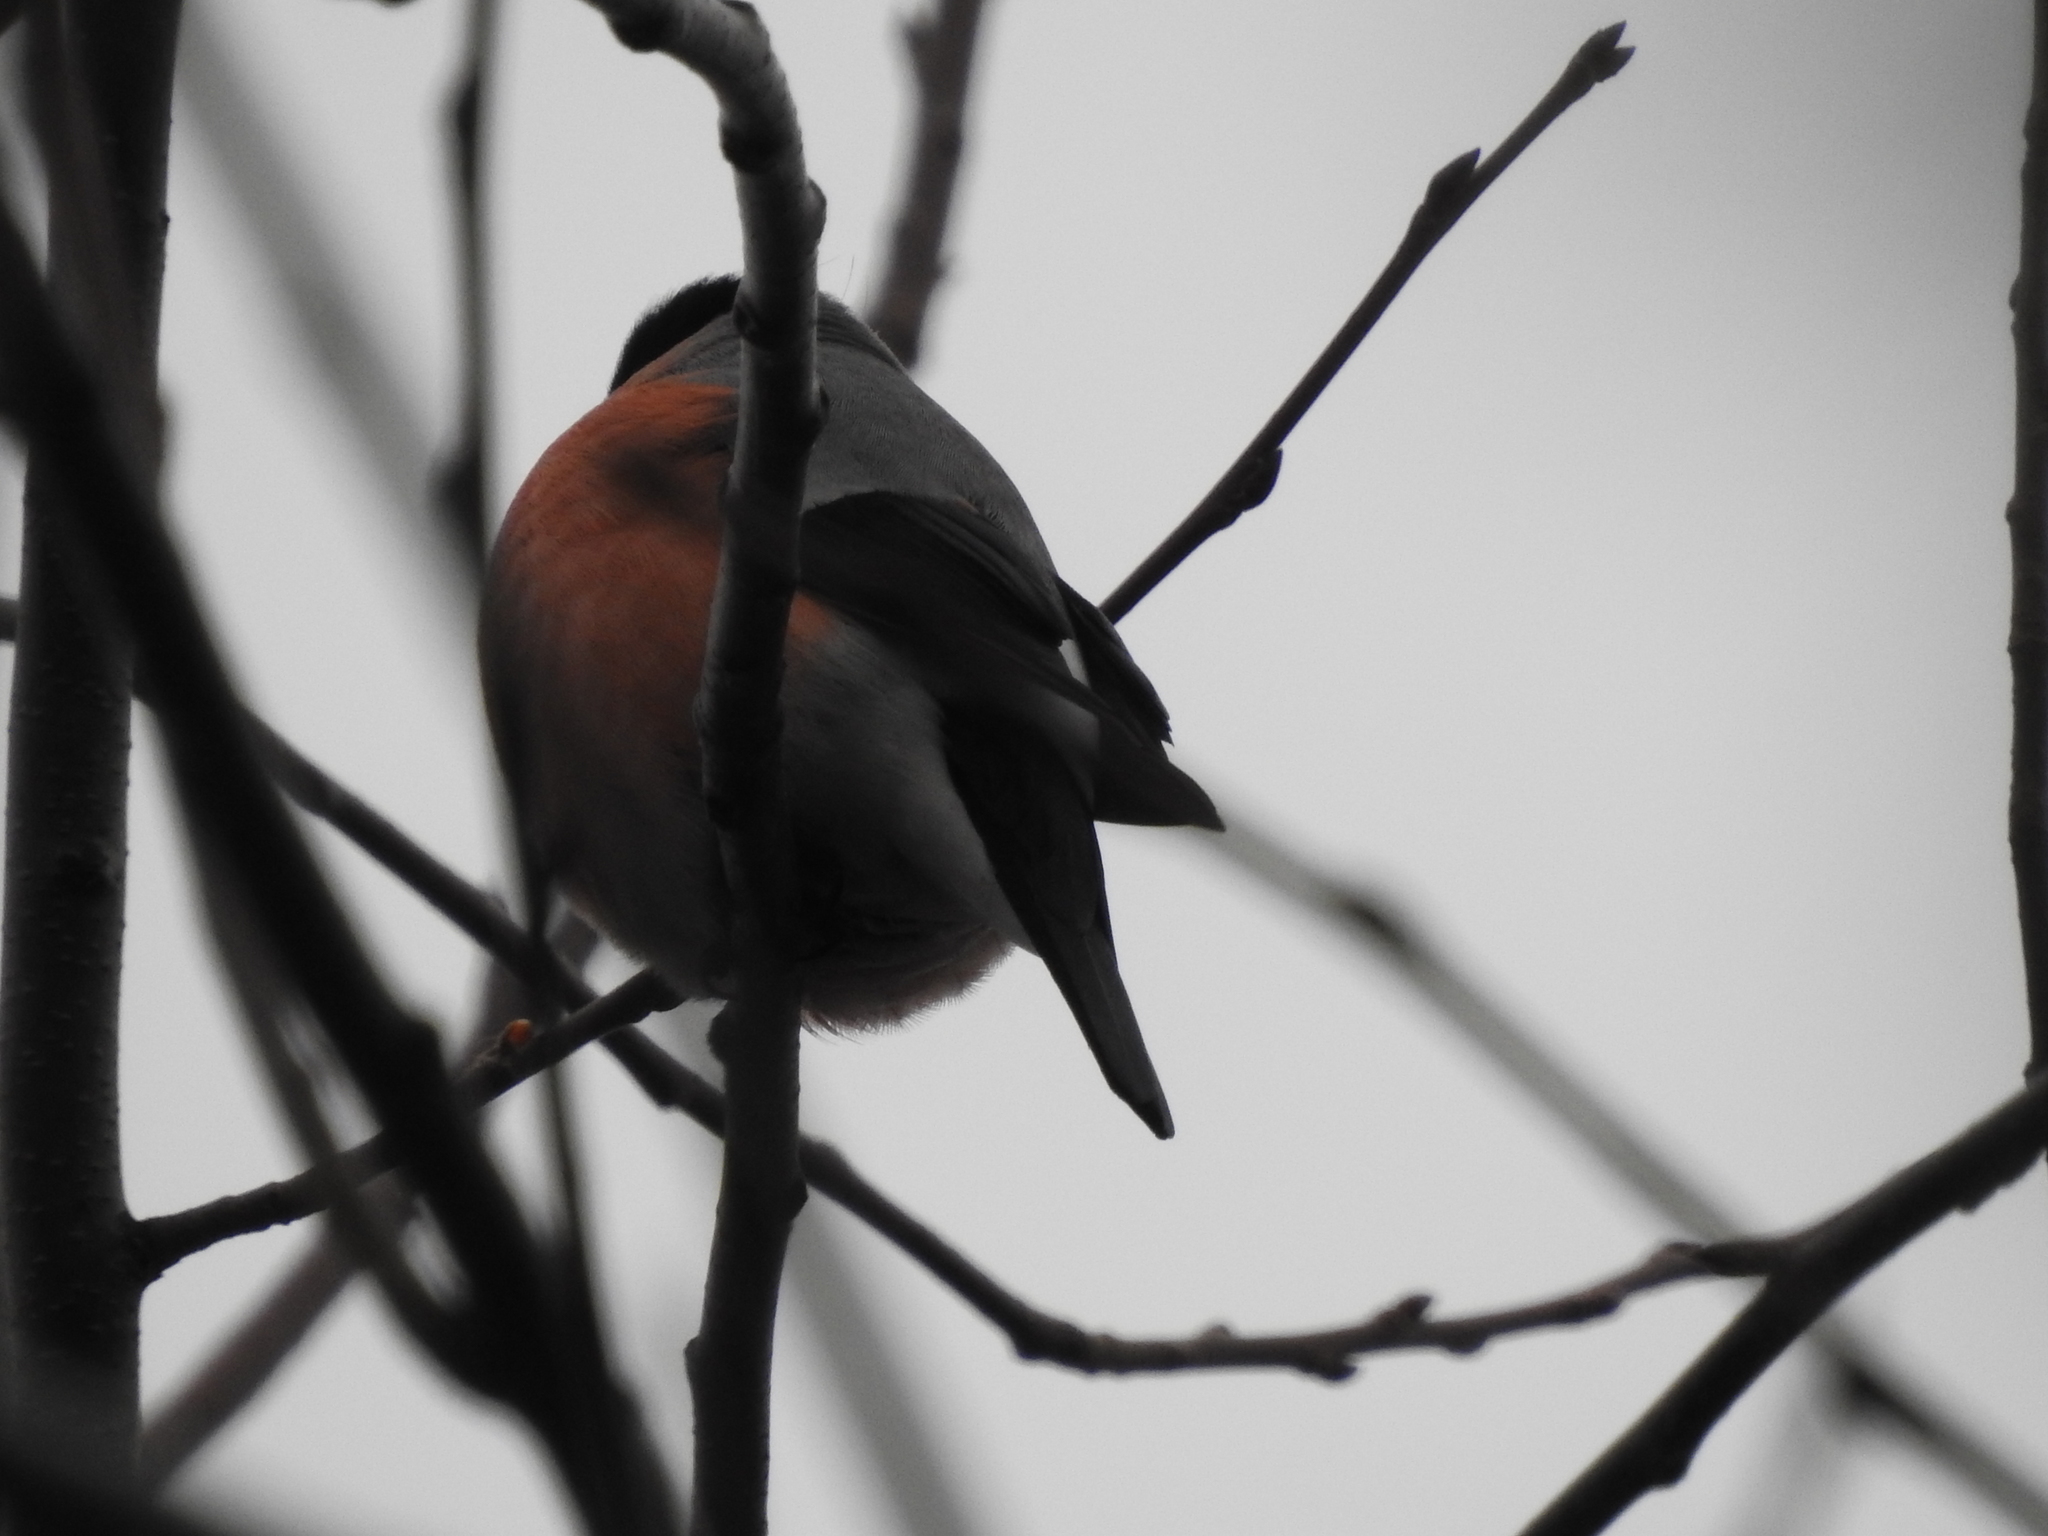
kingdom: Animalia
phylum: Chordata
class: Aves
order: Passeriformes
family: Fringillidae
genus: Pyrrhula
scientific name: Pyrrhula pyrrhula
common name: Eurasian bullfinch
